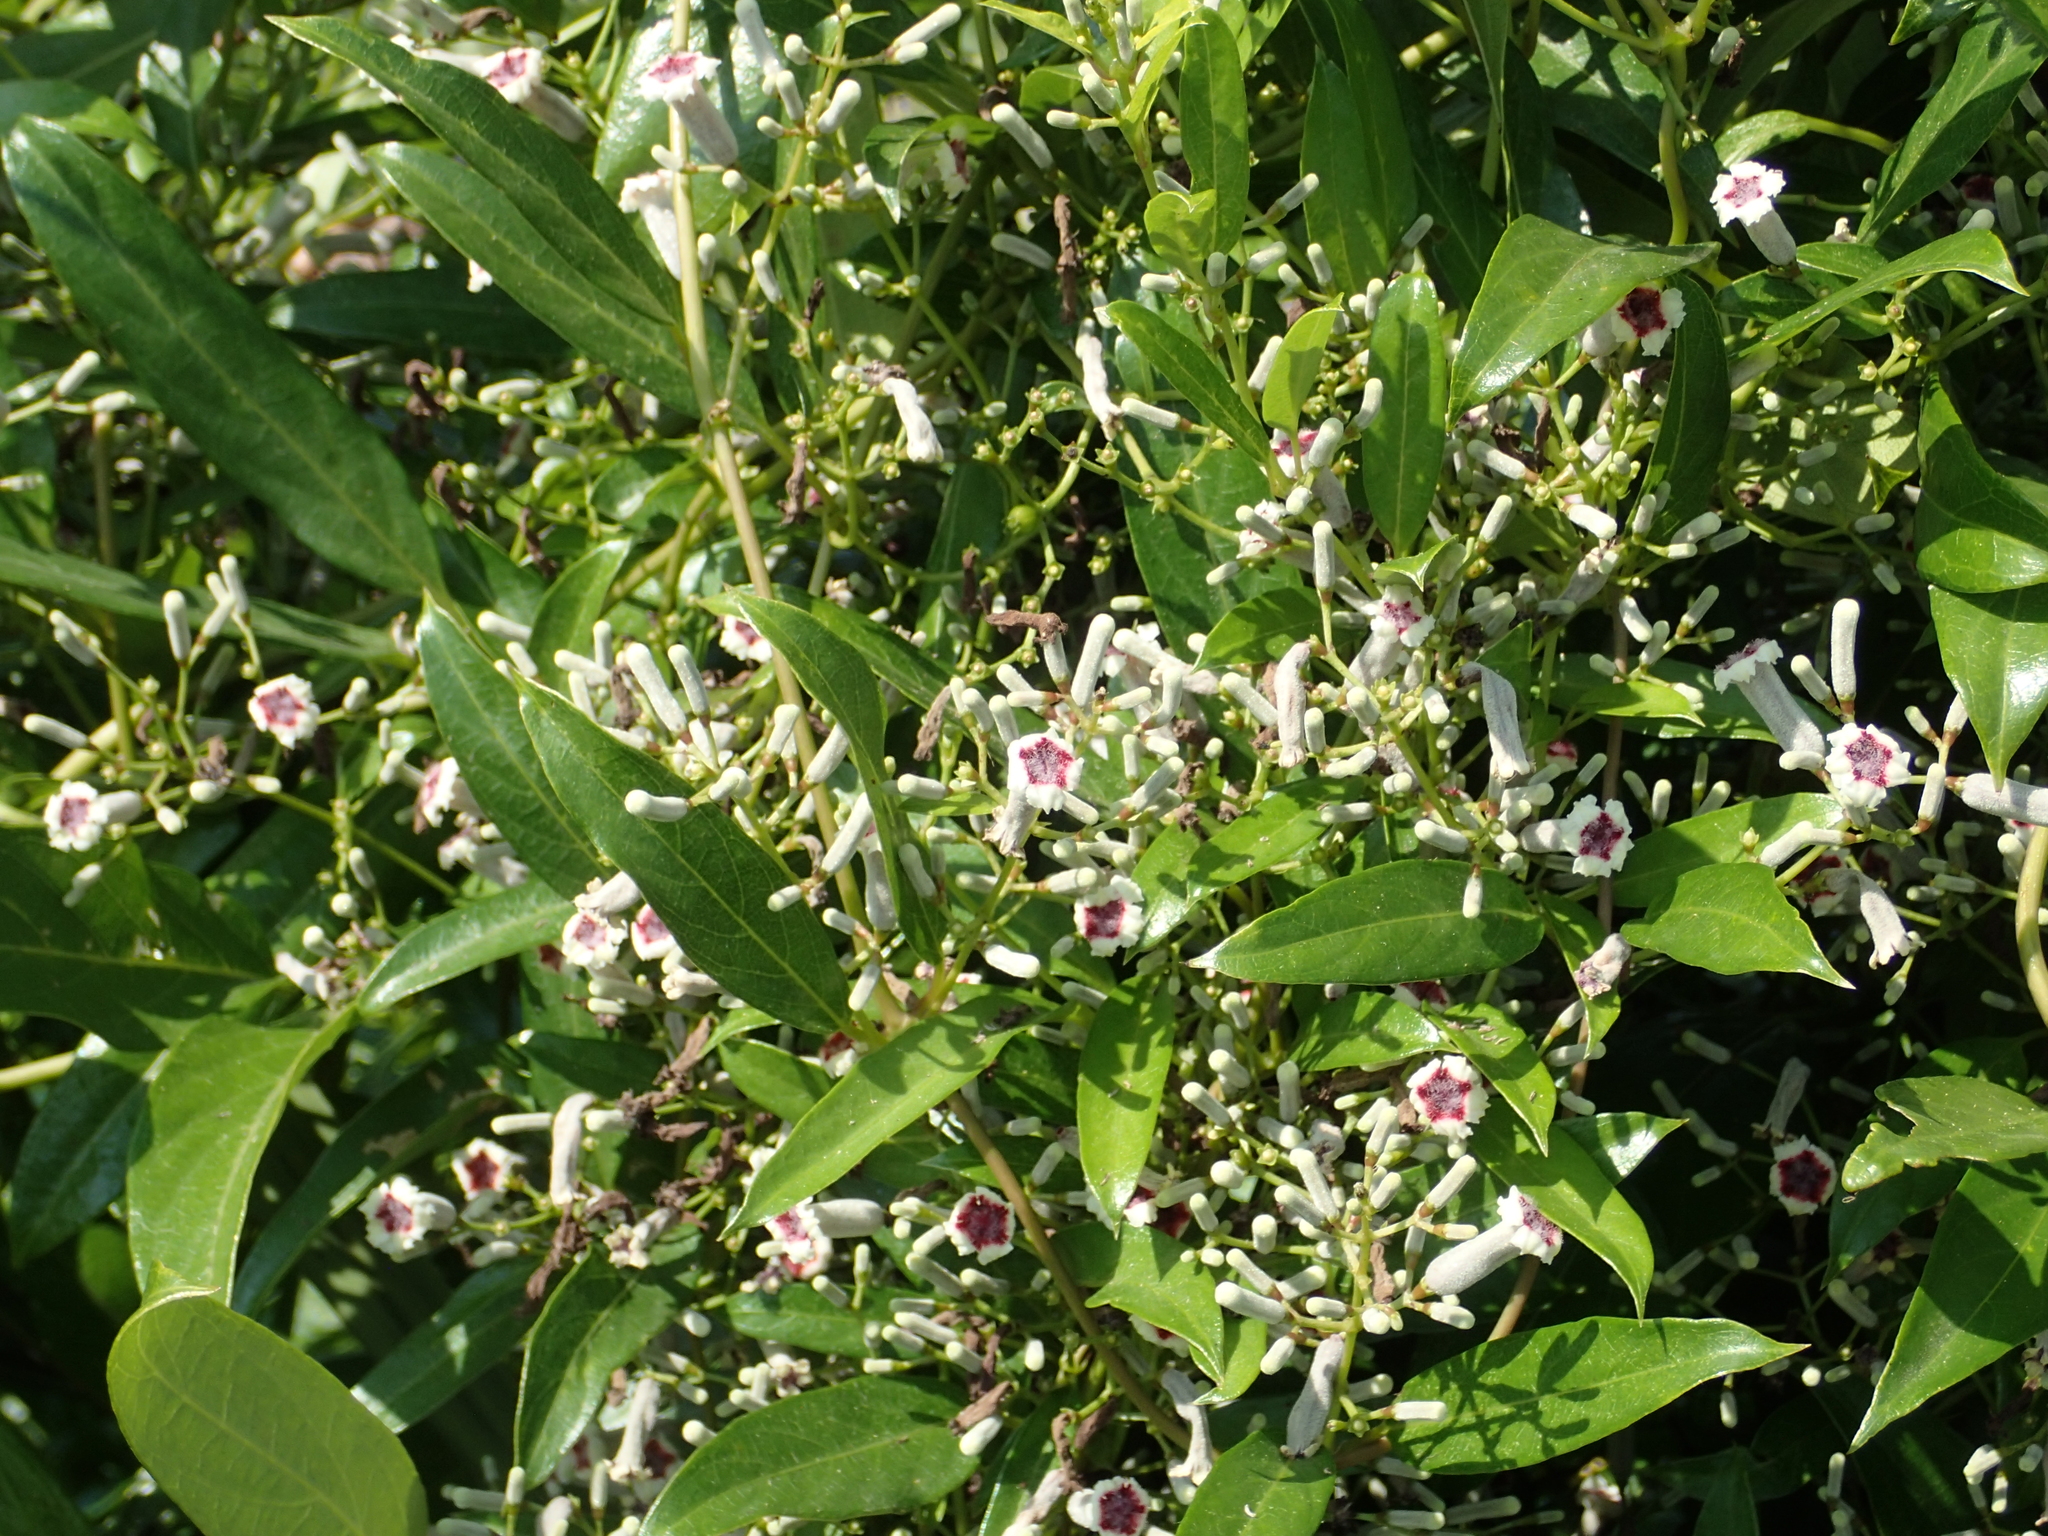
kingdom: Plantae
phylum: Tracheophyta
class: Magnoliopsida
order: Gentianales
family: Rubiaceae
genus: Paederia
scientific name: Paederia foetida
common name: Stinkvine
